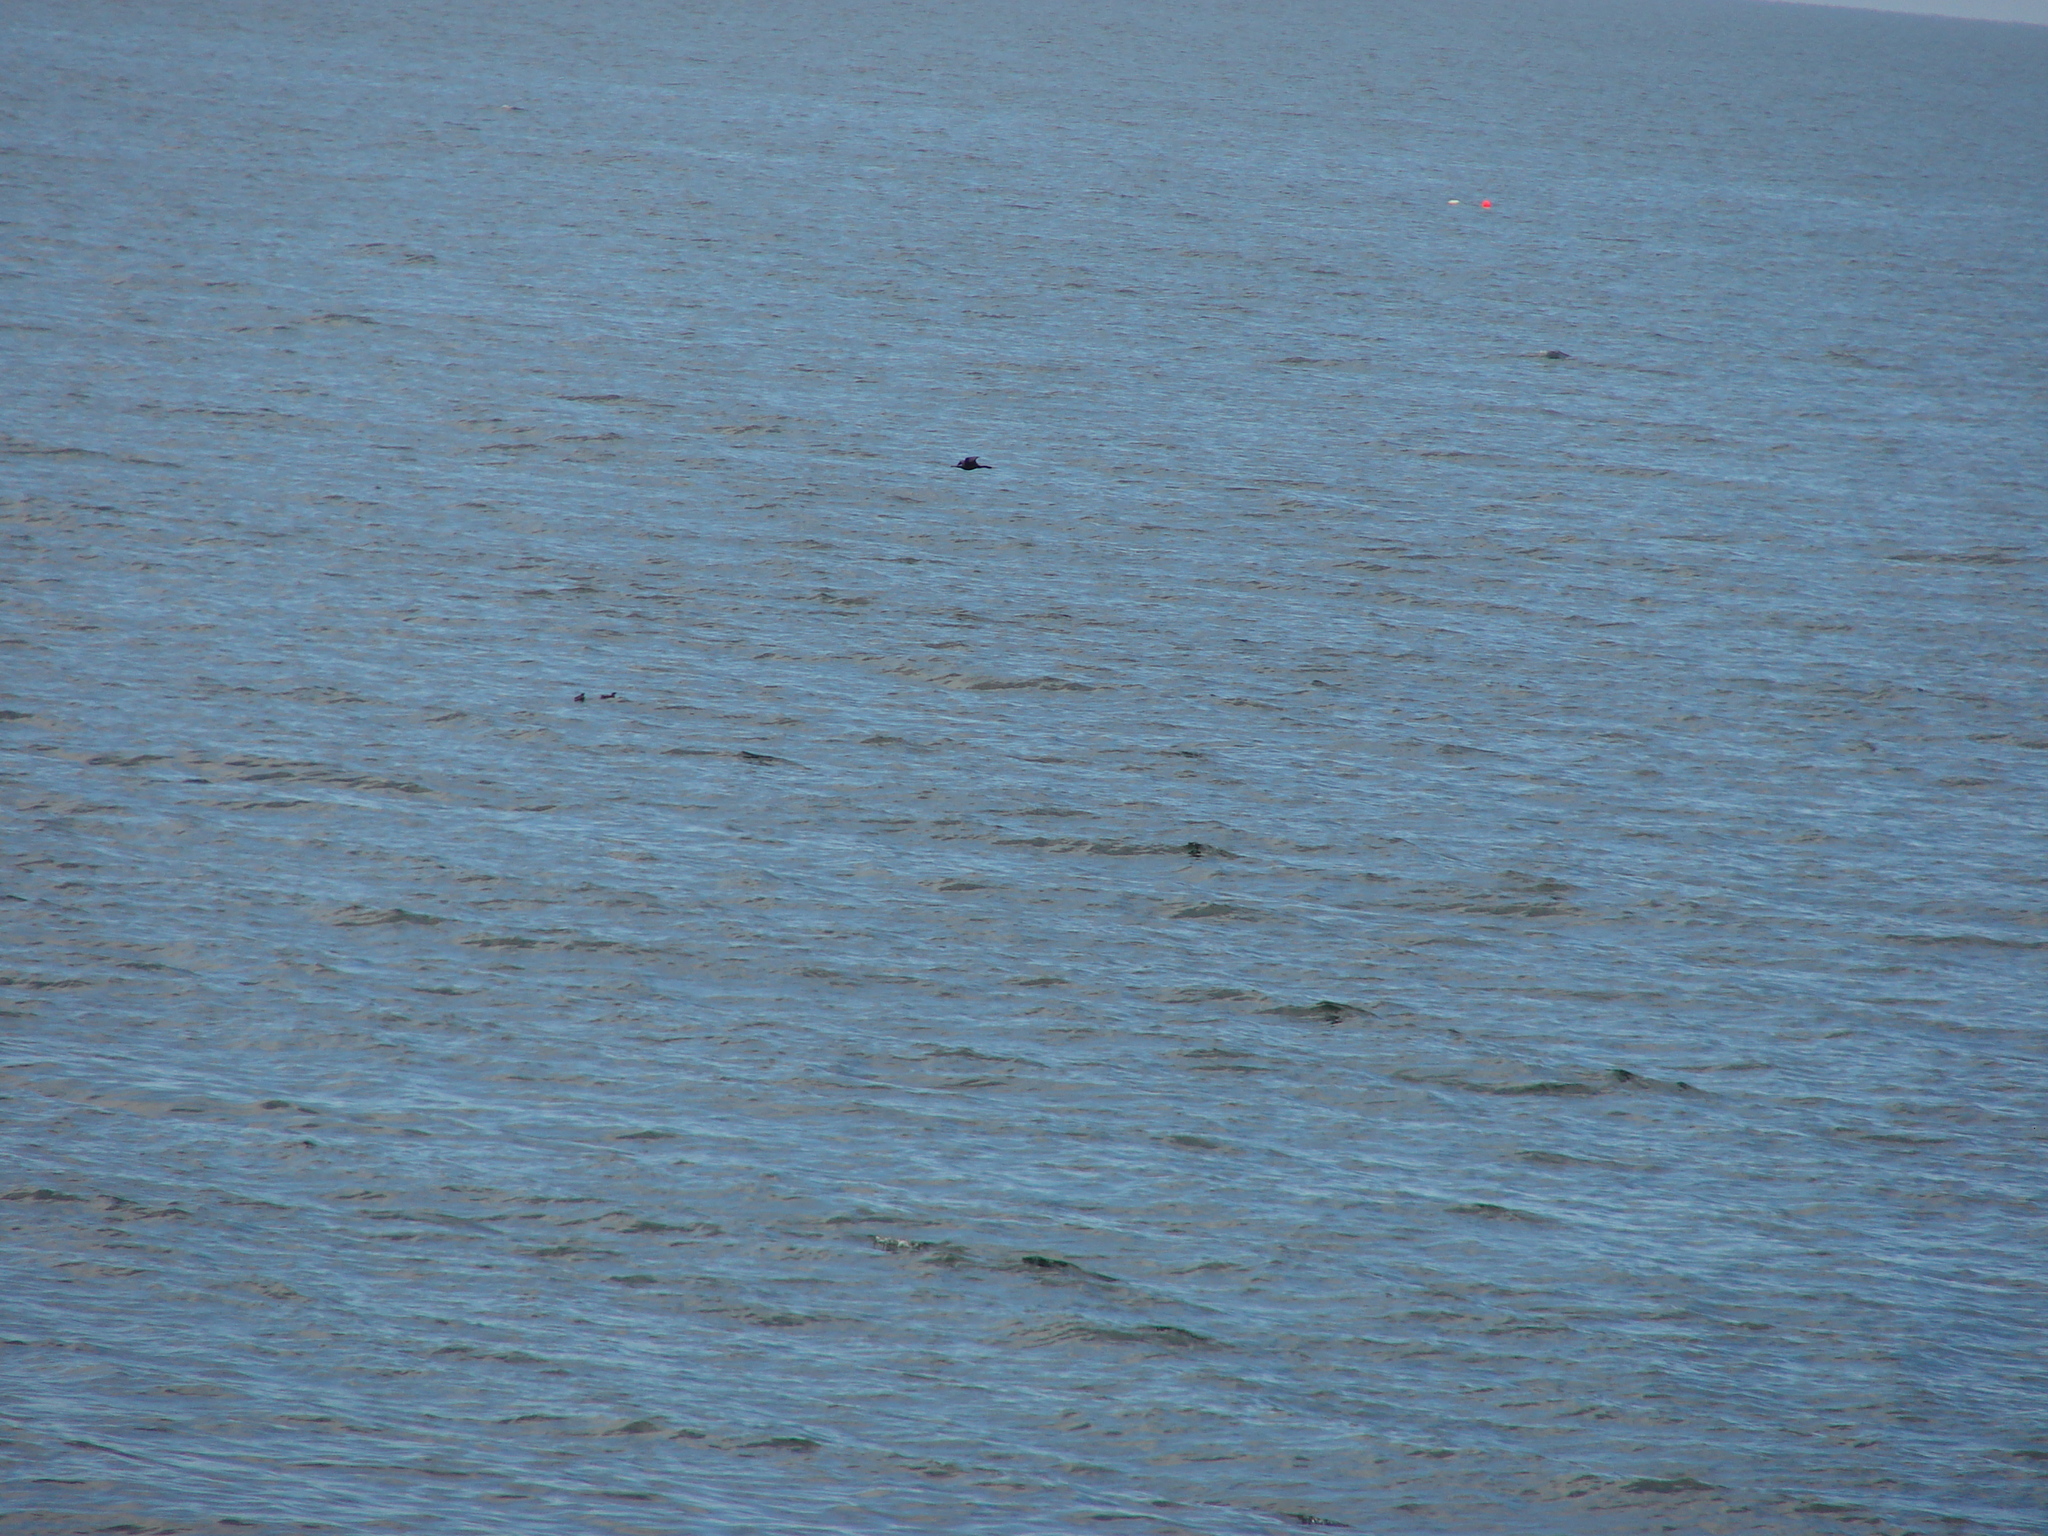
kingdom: Animalia
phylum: Chordata
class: Aves
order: Suliformes
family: Phalacrocoracidae
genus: Phalacrocorax
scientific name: Phalacrocorax pelagicus
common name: Pelagic cormorant
